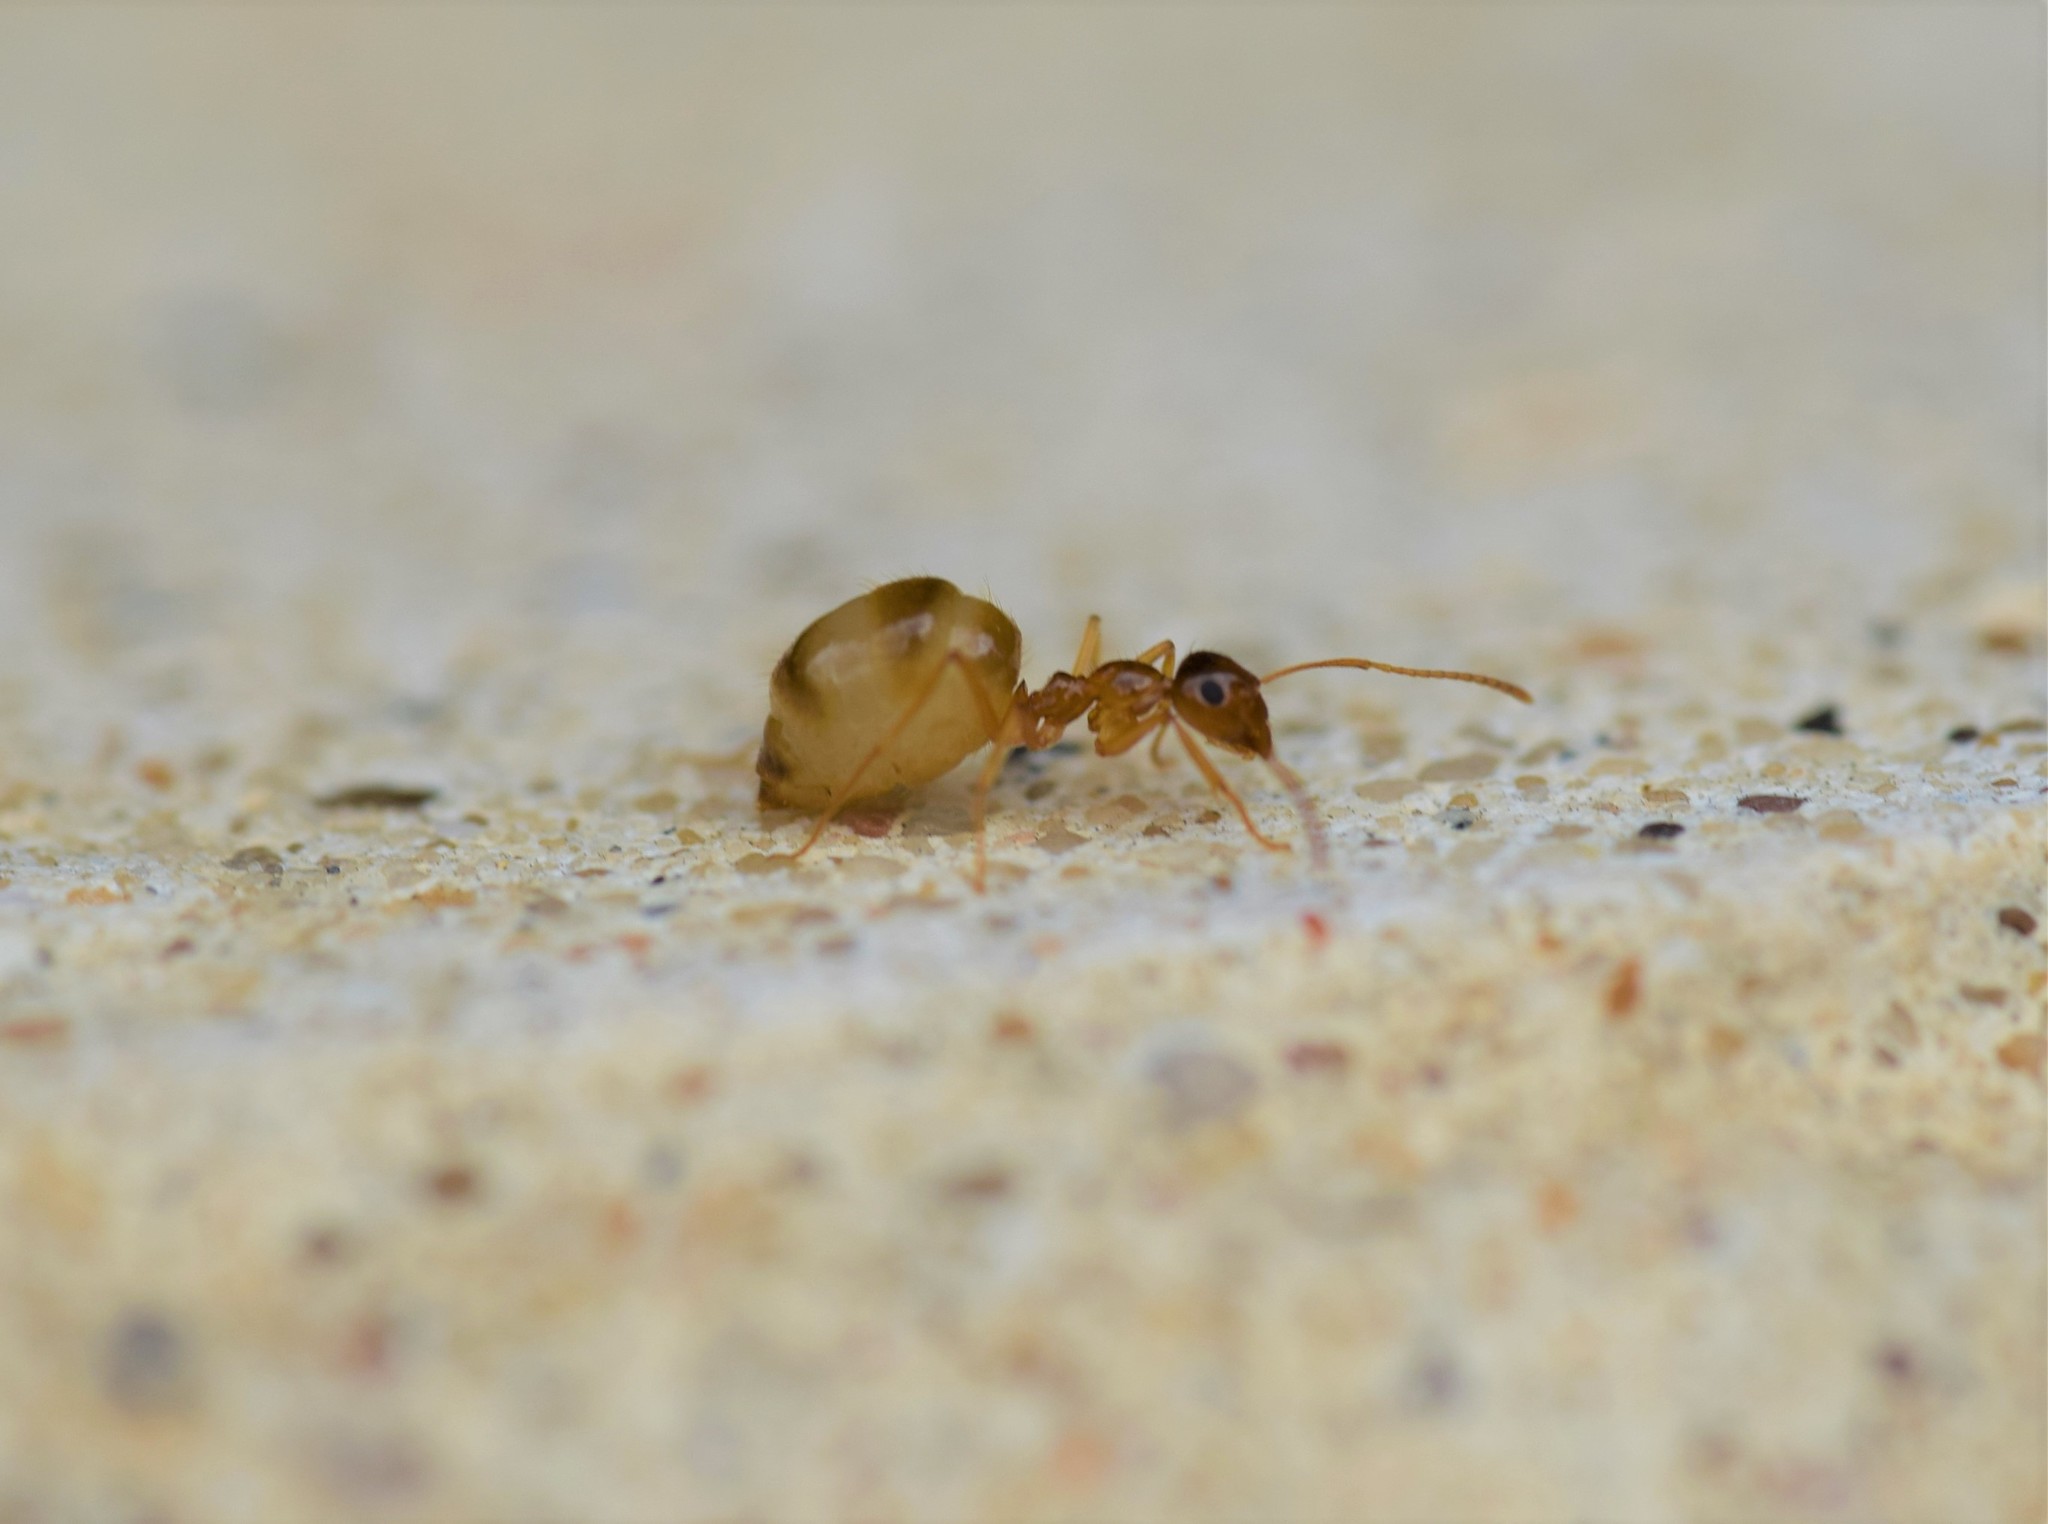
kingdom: Animalia
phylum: Arthropoda
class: Insecta
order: Hymenoptera
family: Formicidae
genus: Prenolepis
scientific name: Prenolepis imparis
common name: Small honey ant
